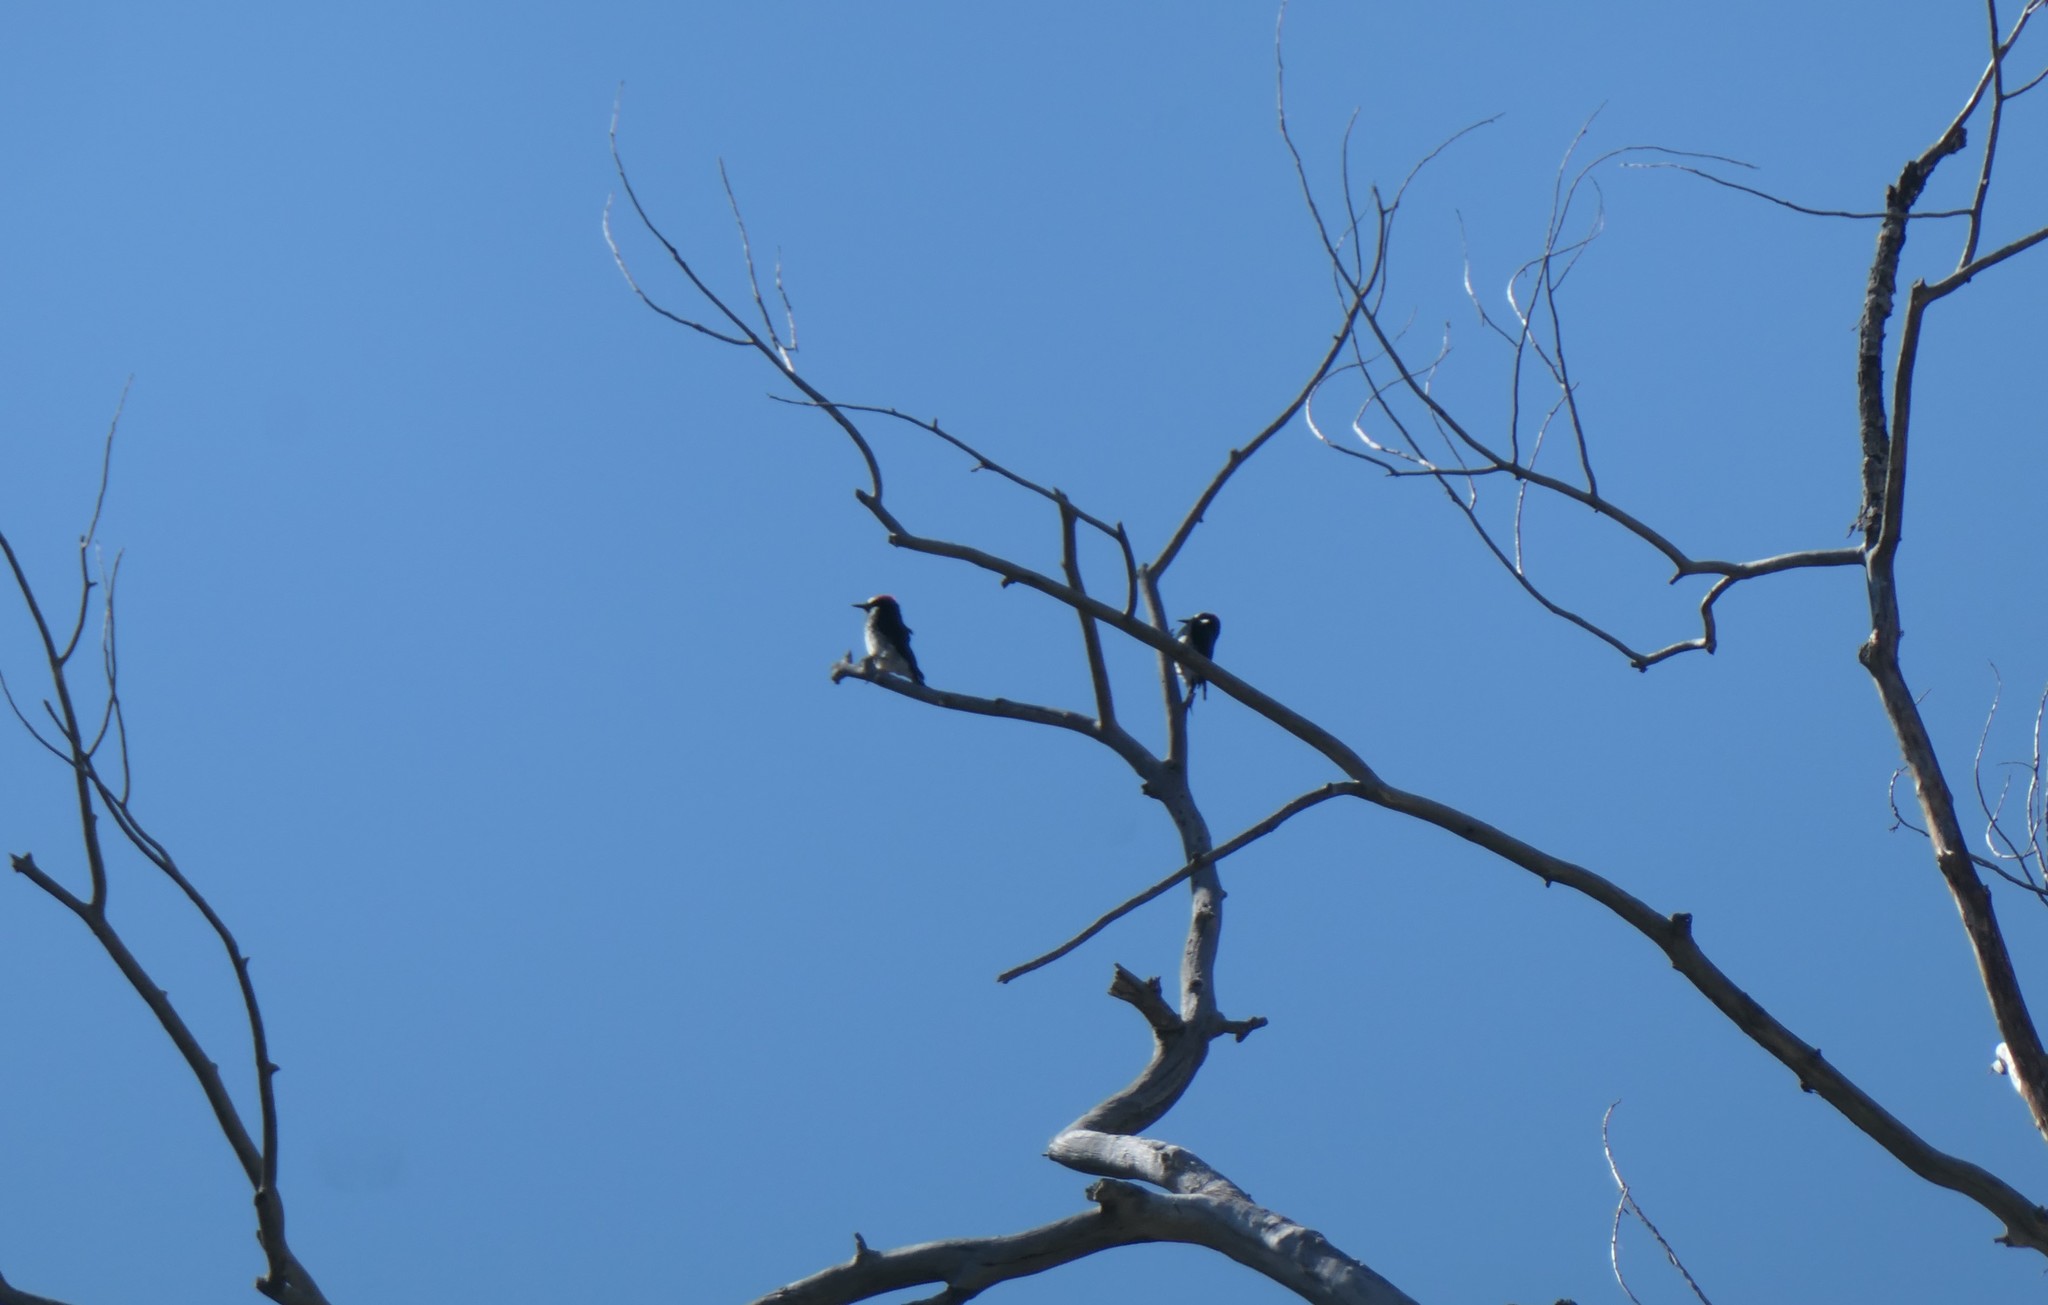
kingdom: Animalia
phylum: Chordata
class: Aves
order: Piciformes
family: Picidae
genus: Melanerpes
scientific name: Melanerpes formicivorus
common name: Acorn woodpecker
